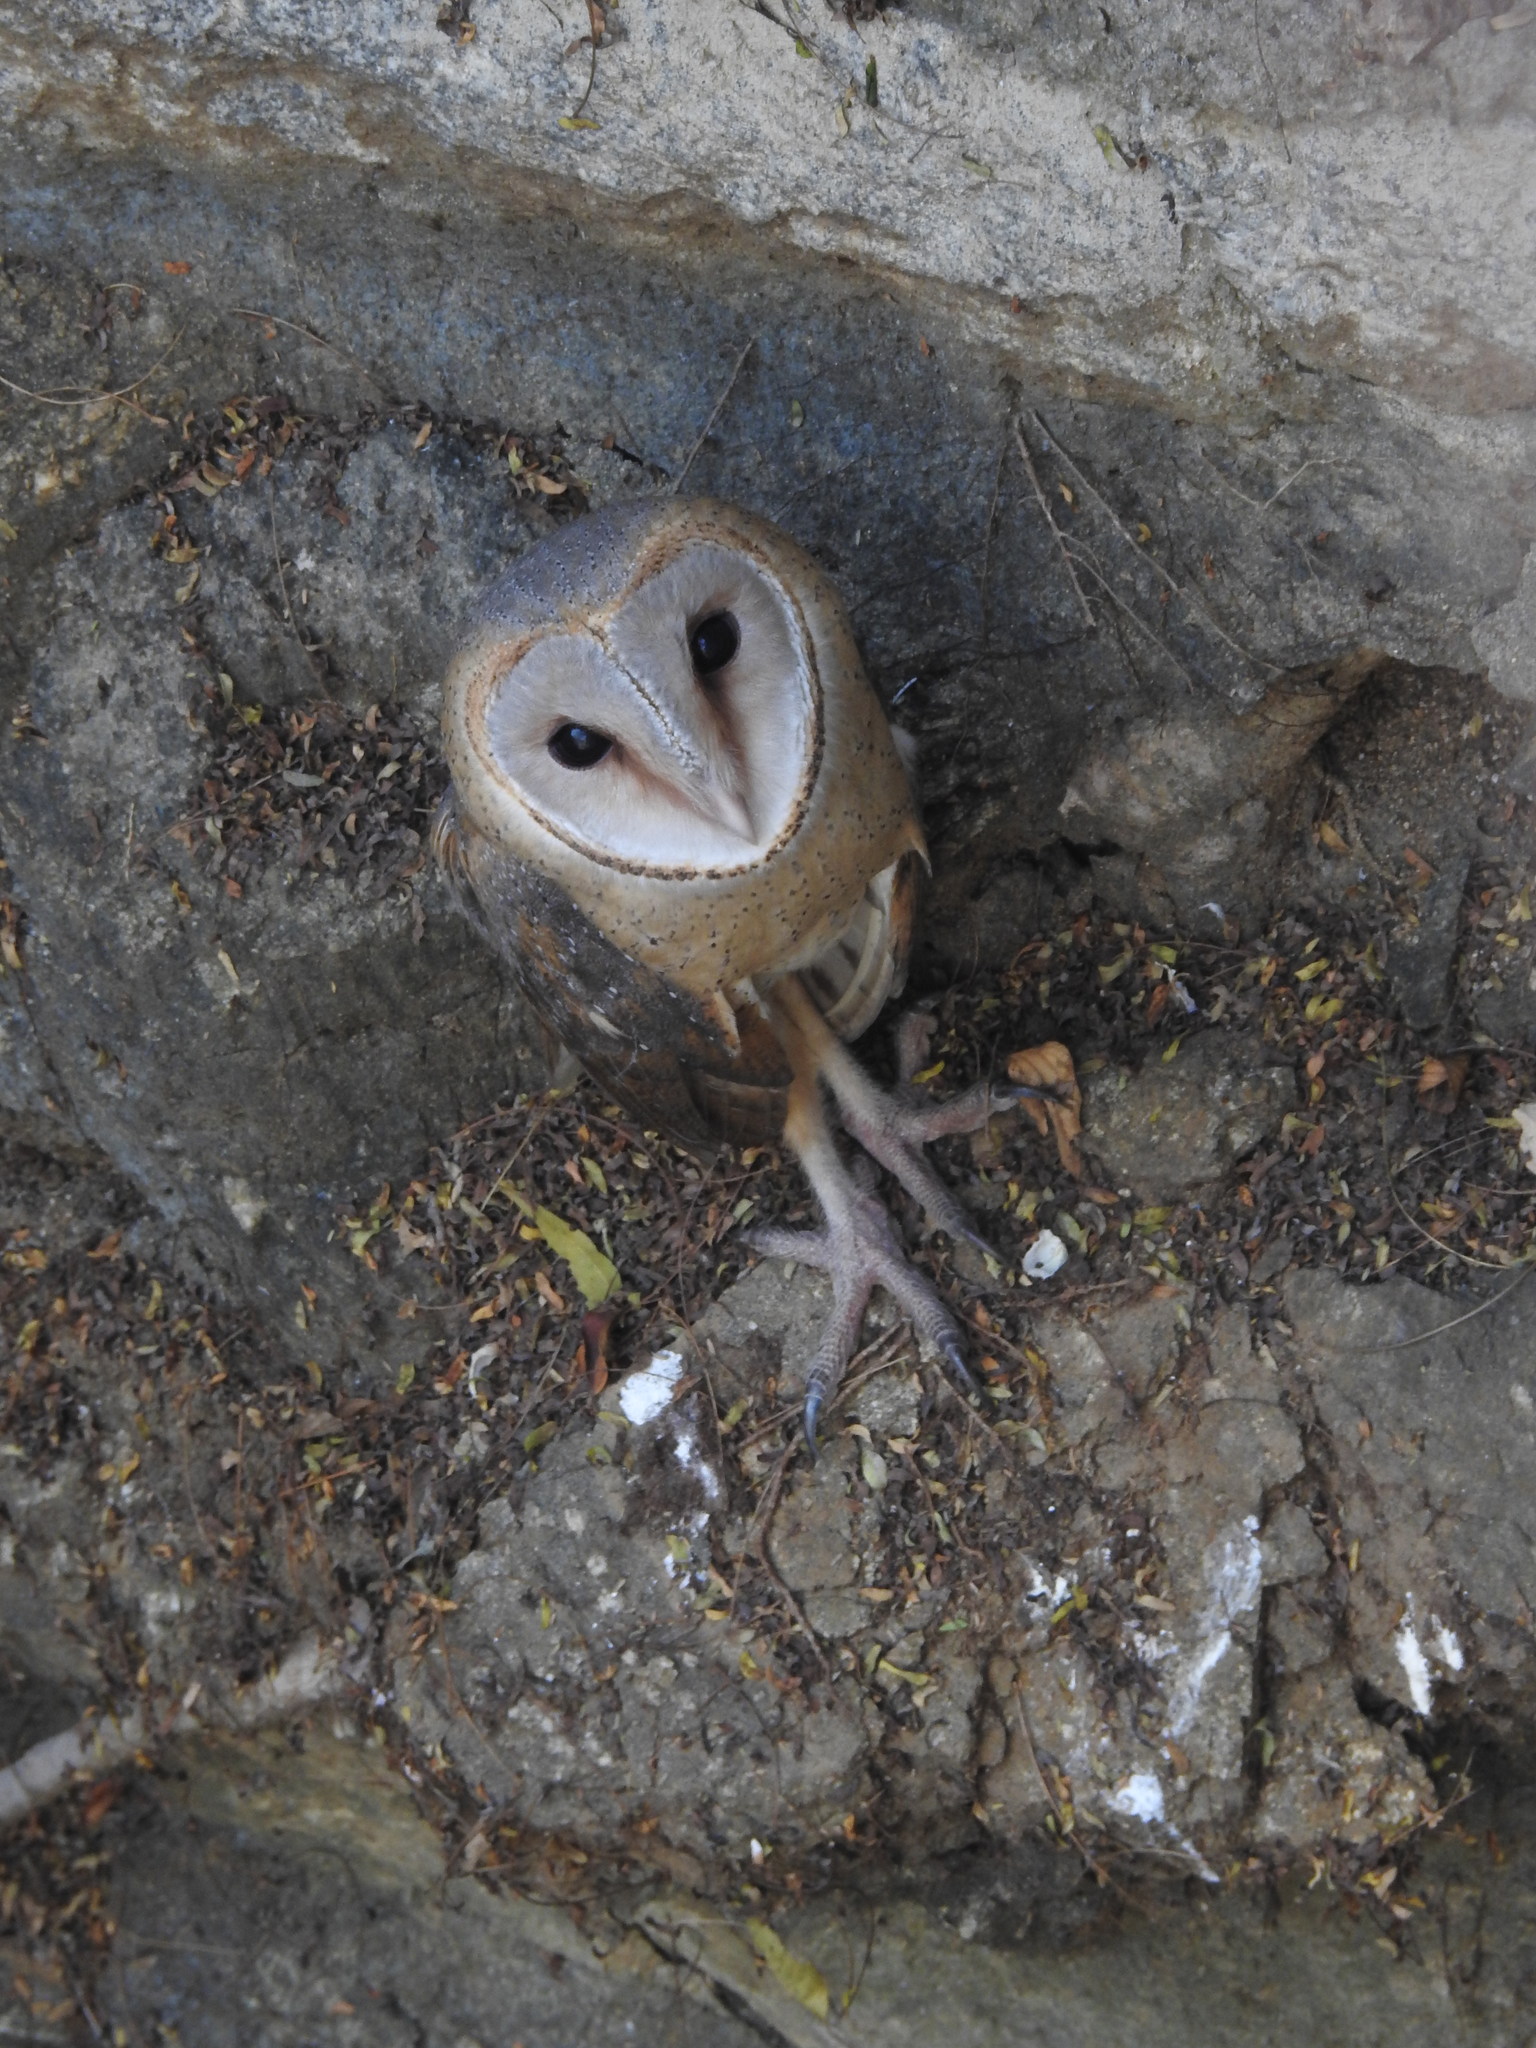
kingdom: Animalia
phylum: Chordata
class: Aves
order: Strigiformes
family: Tytonidae
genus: Tyto
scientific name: Tyto alba
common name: Barn owl
